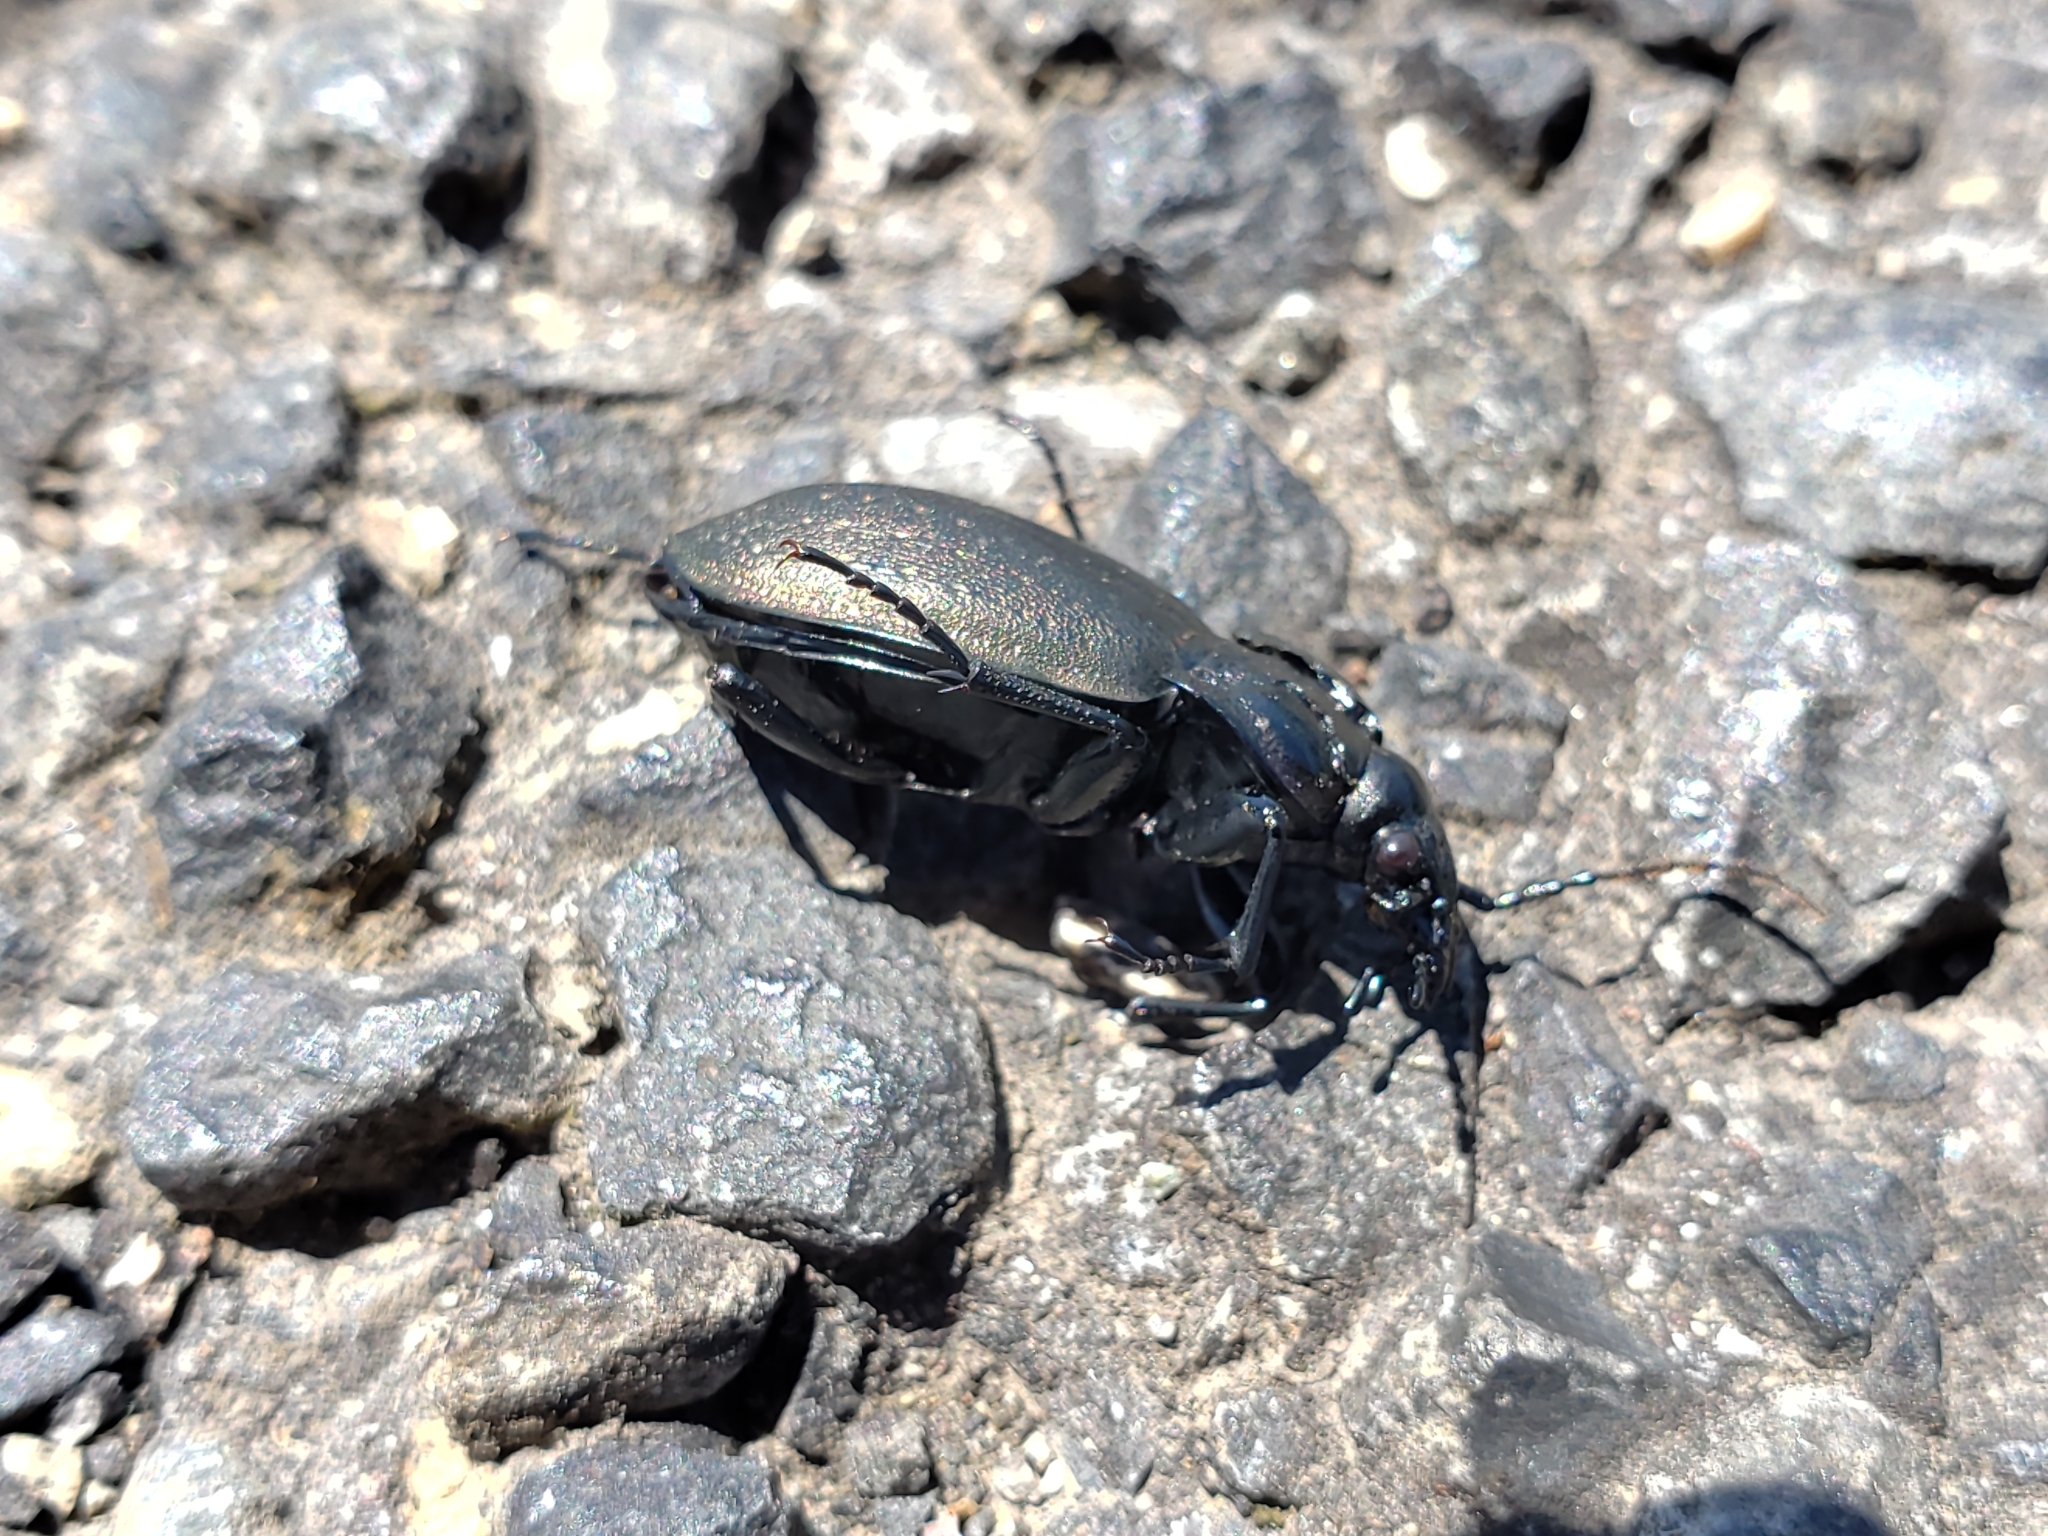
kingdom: Animalia
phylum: Arthropoda
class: Insecta
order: Coleoptera
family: Carabidae
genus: Carabus
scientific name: Carabus nemoralis
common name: European ground beetle
